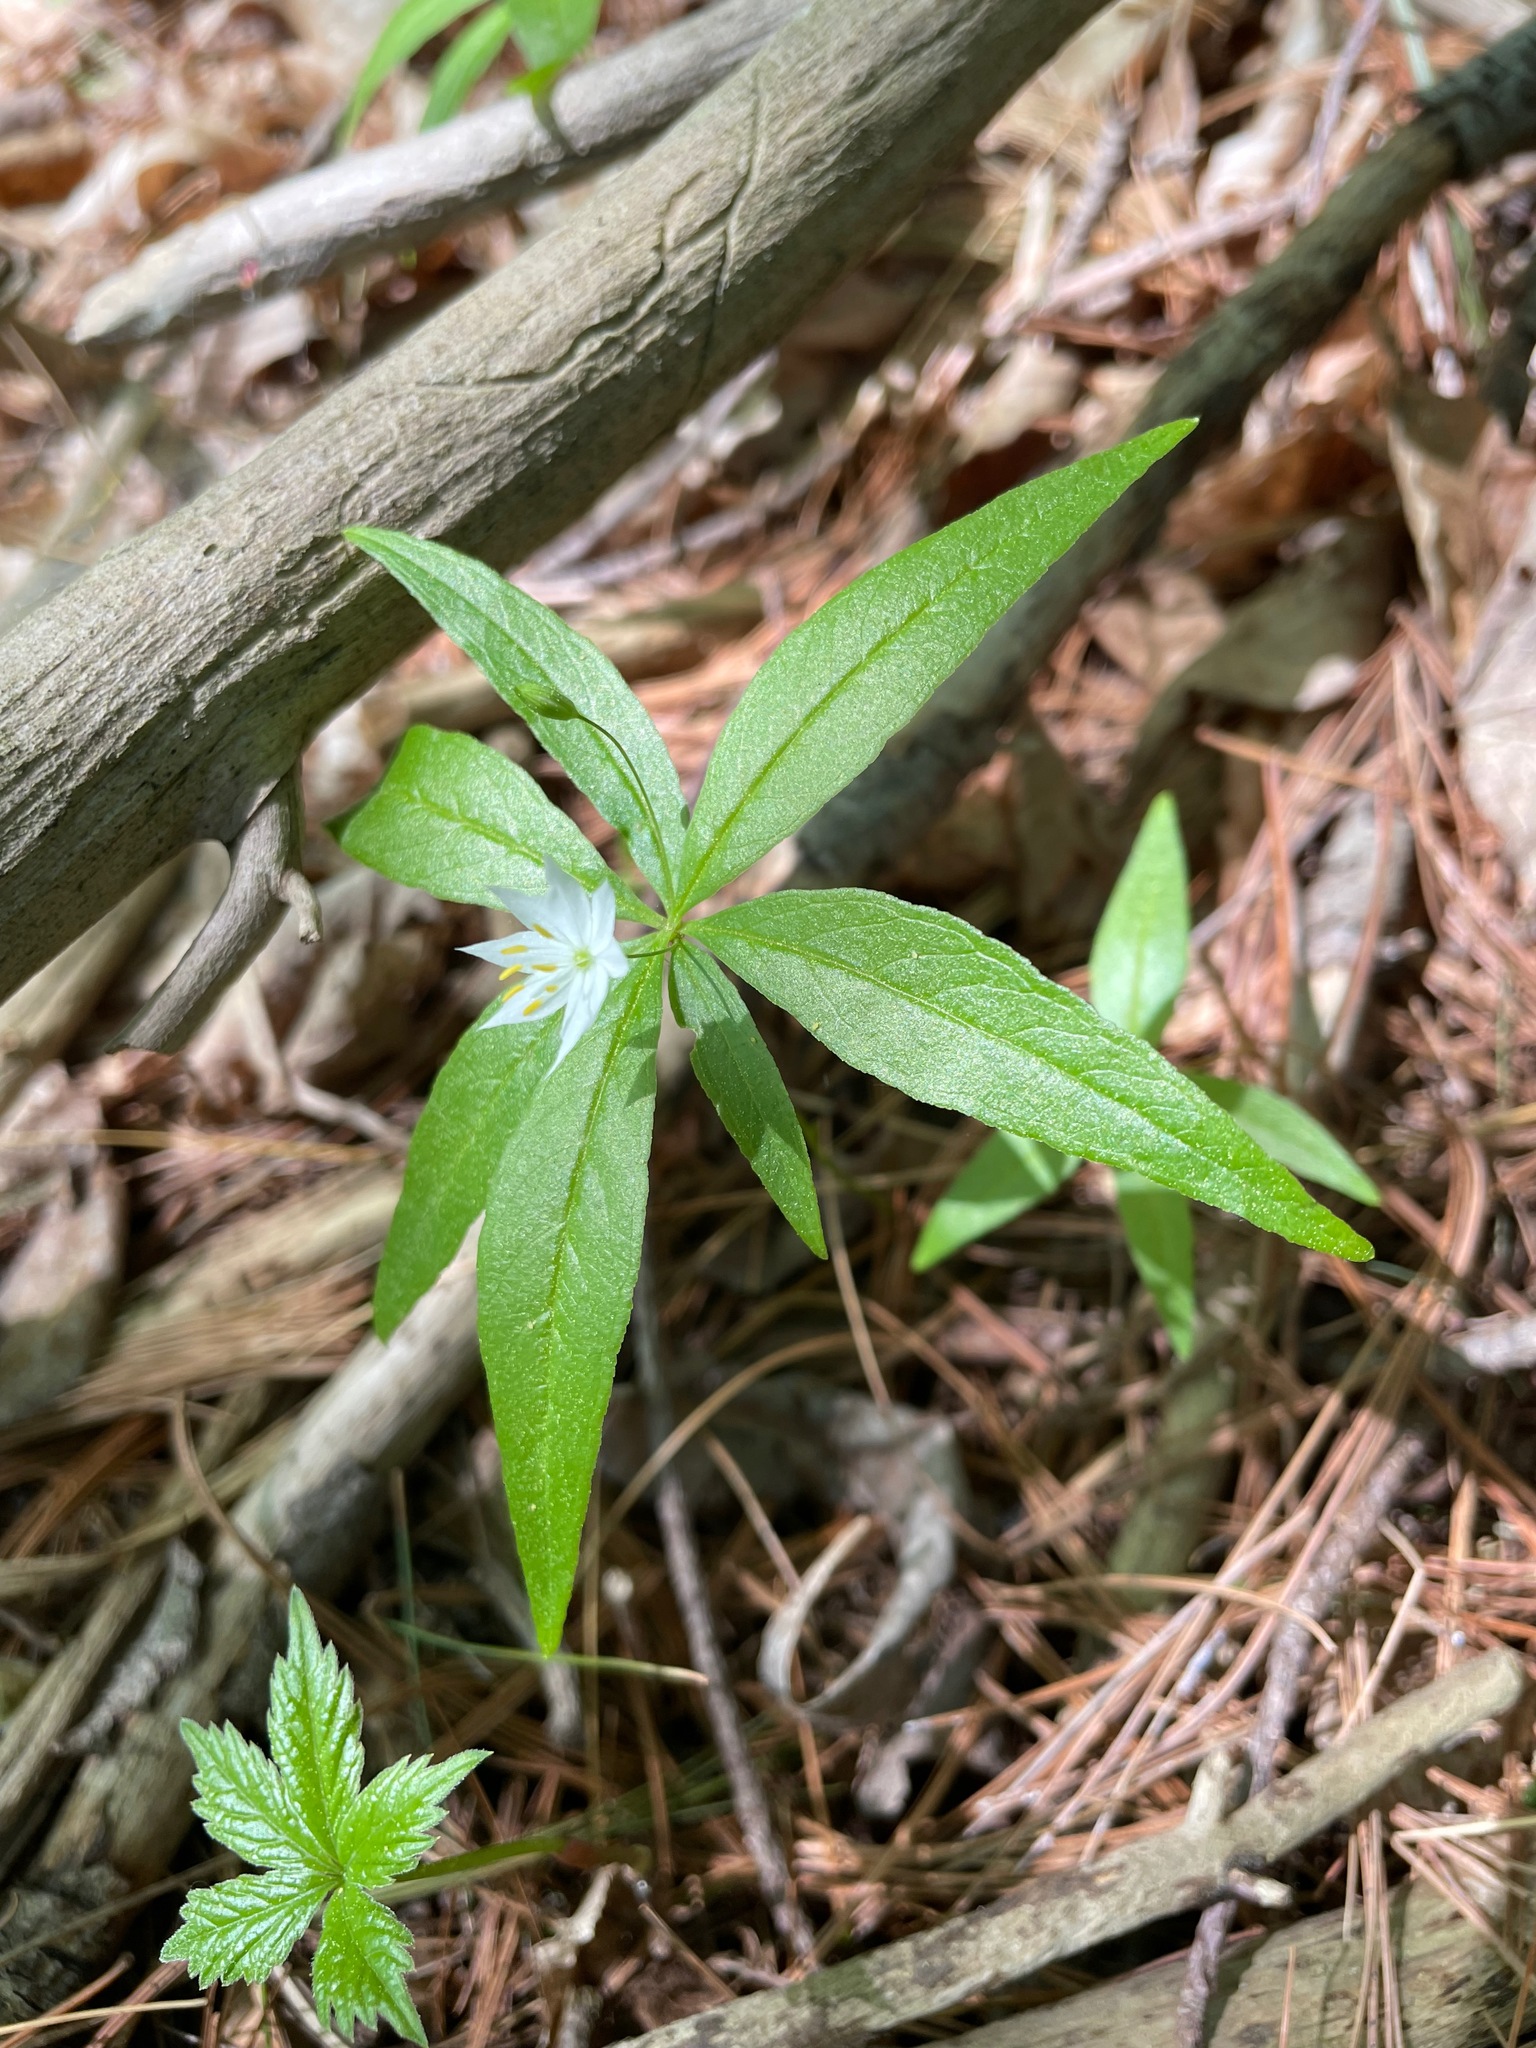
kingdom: Plantae
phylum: Tracheophyta
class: Magnoliopsida
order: Ericales
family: Primulaceae
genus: Lysimachia
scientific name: Lysimachia borealis
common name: American starflower
